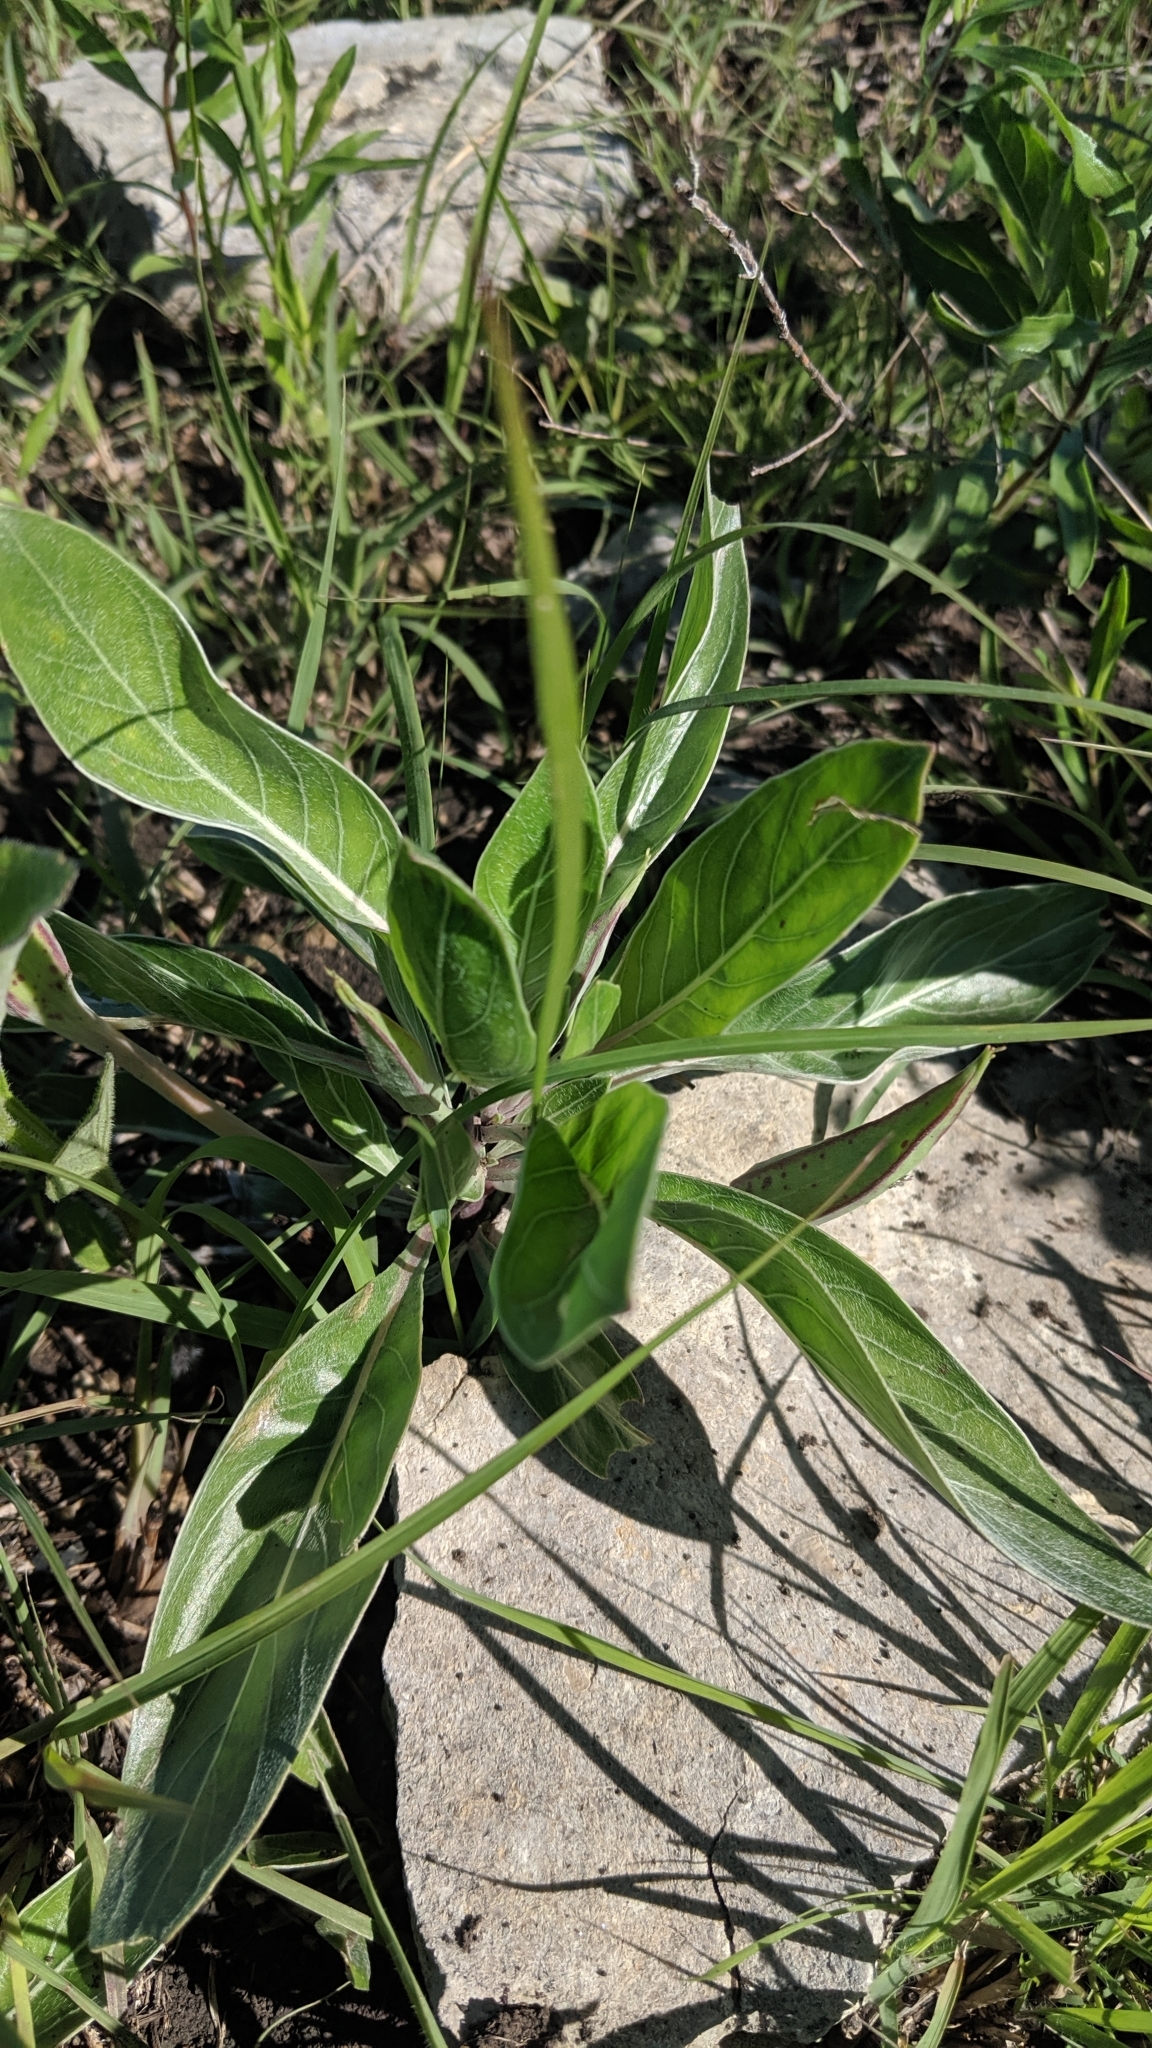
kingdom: Plantae
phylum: Tracheophyta
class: Magnoliopsida
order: Myrtales
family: Onagraceae
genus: Oenothera
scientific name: Oenothera macrocarpa
